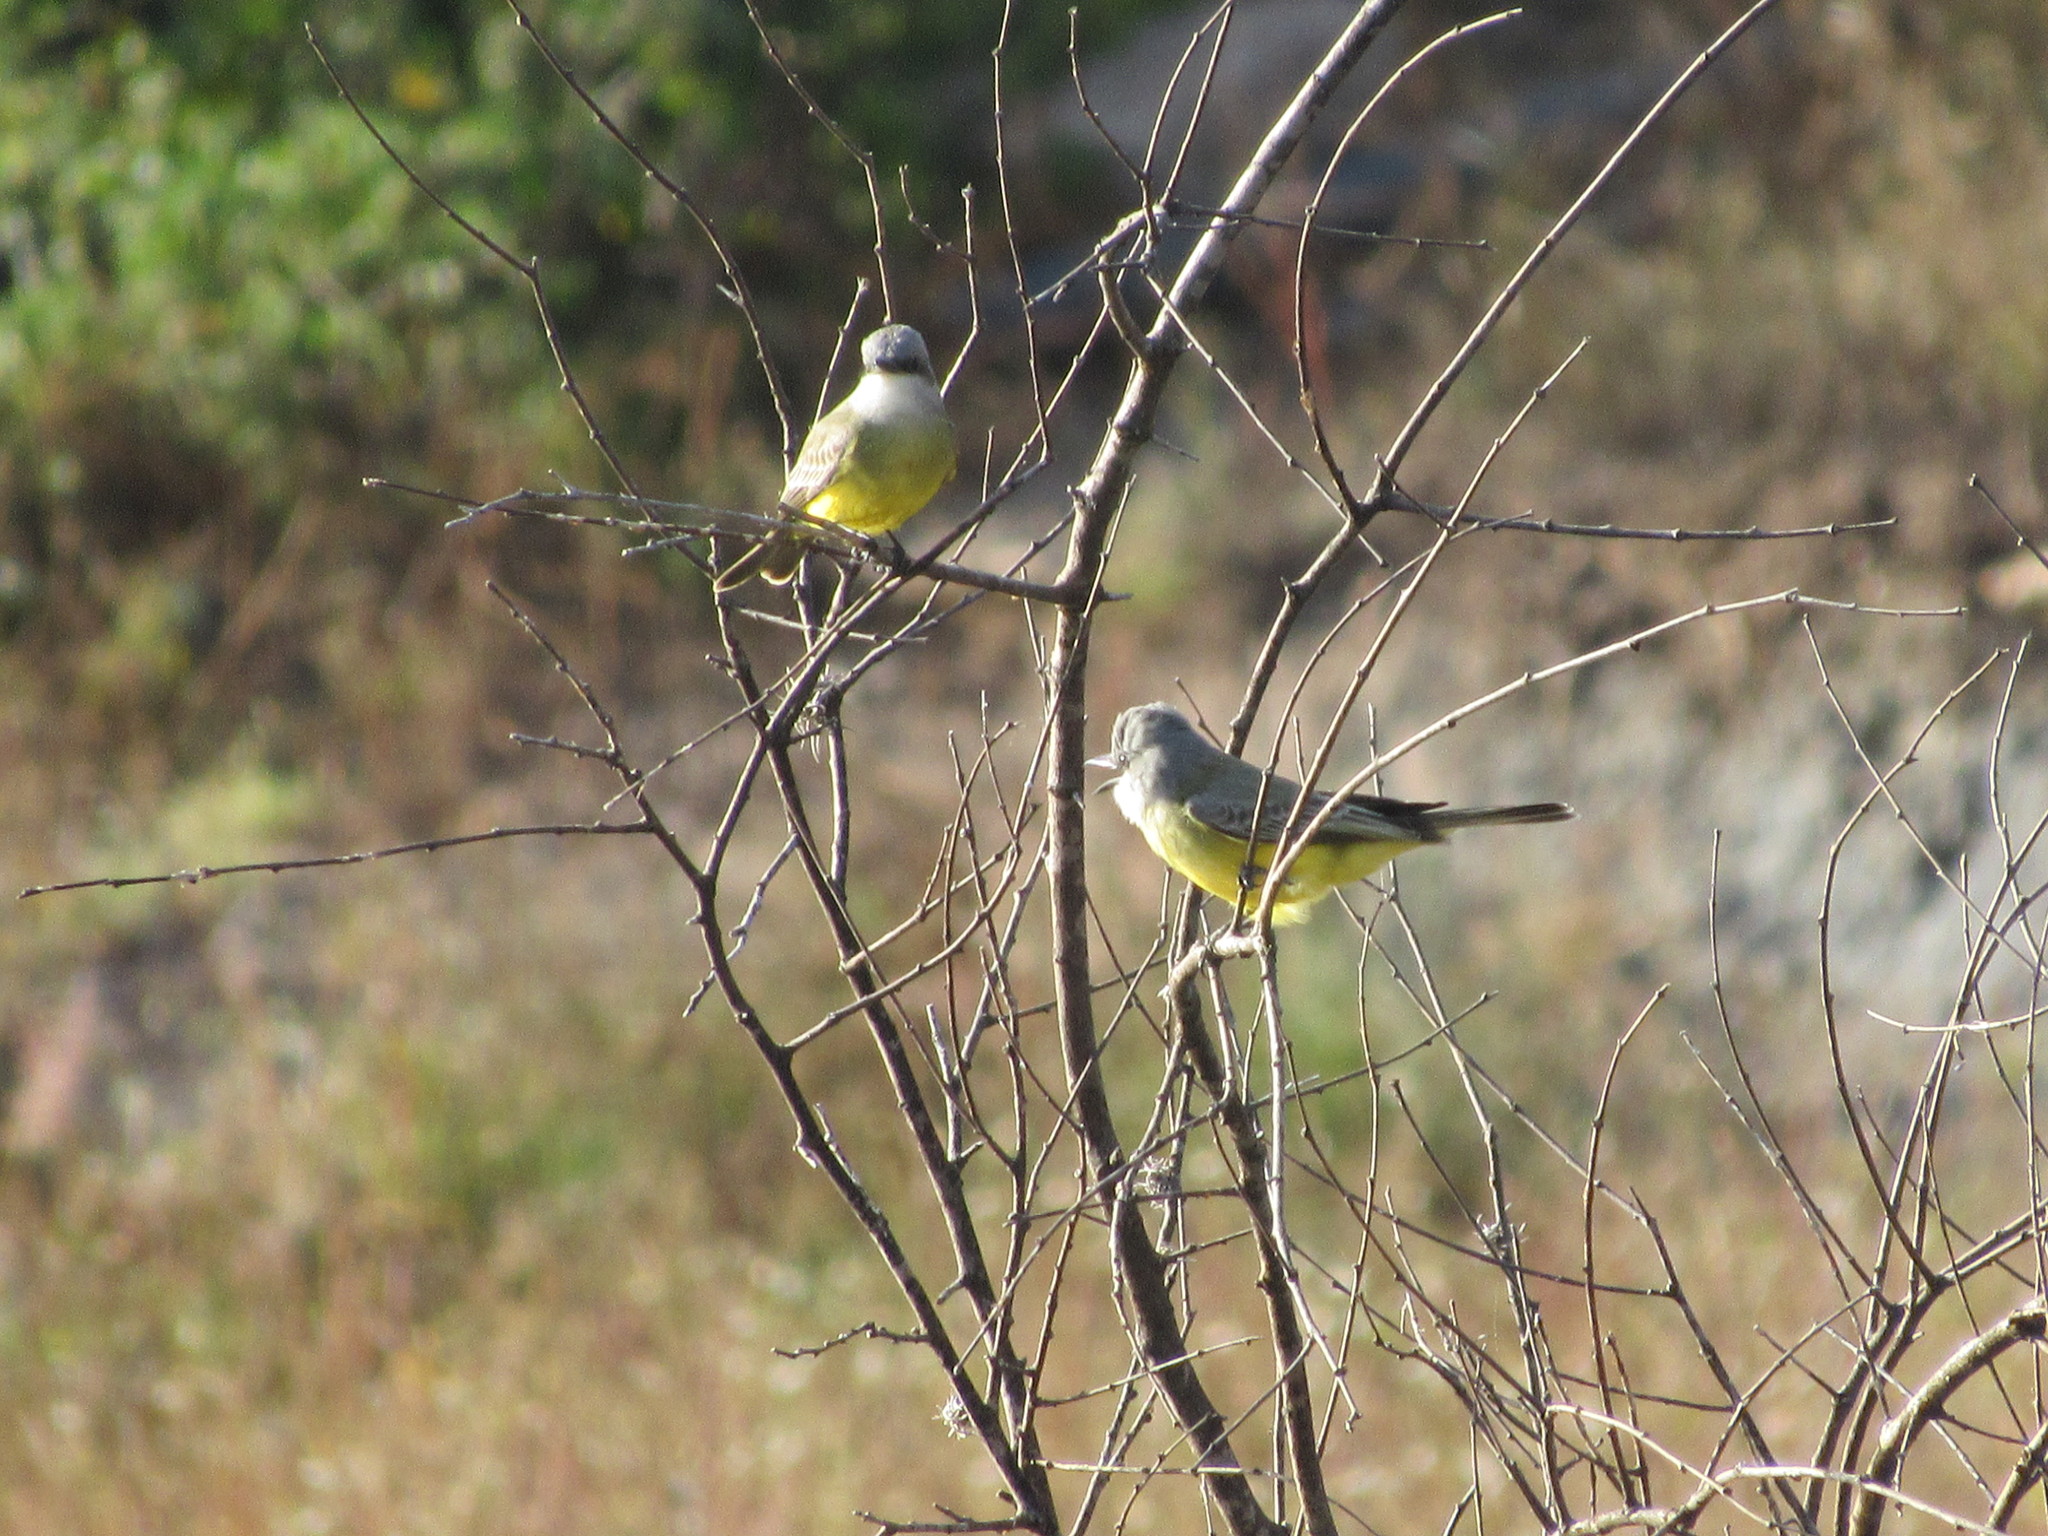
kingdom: Animalia
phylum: Chordata
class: Aves
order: Passeriformes
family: Tyrannidae
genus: Tyrannus
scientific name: Tyrannus verticalis
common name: Western kingbird
